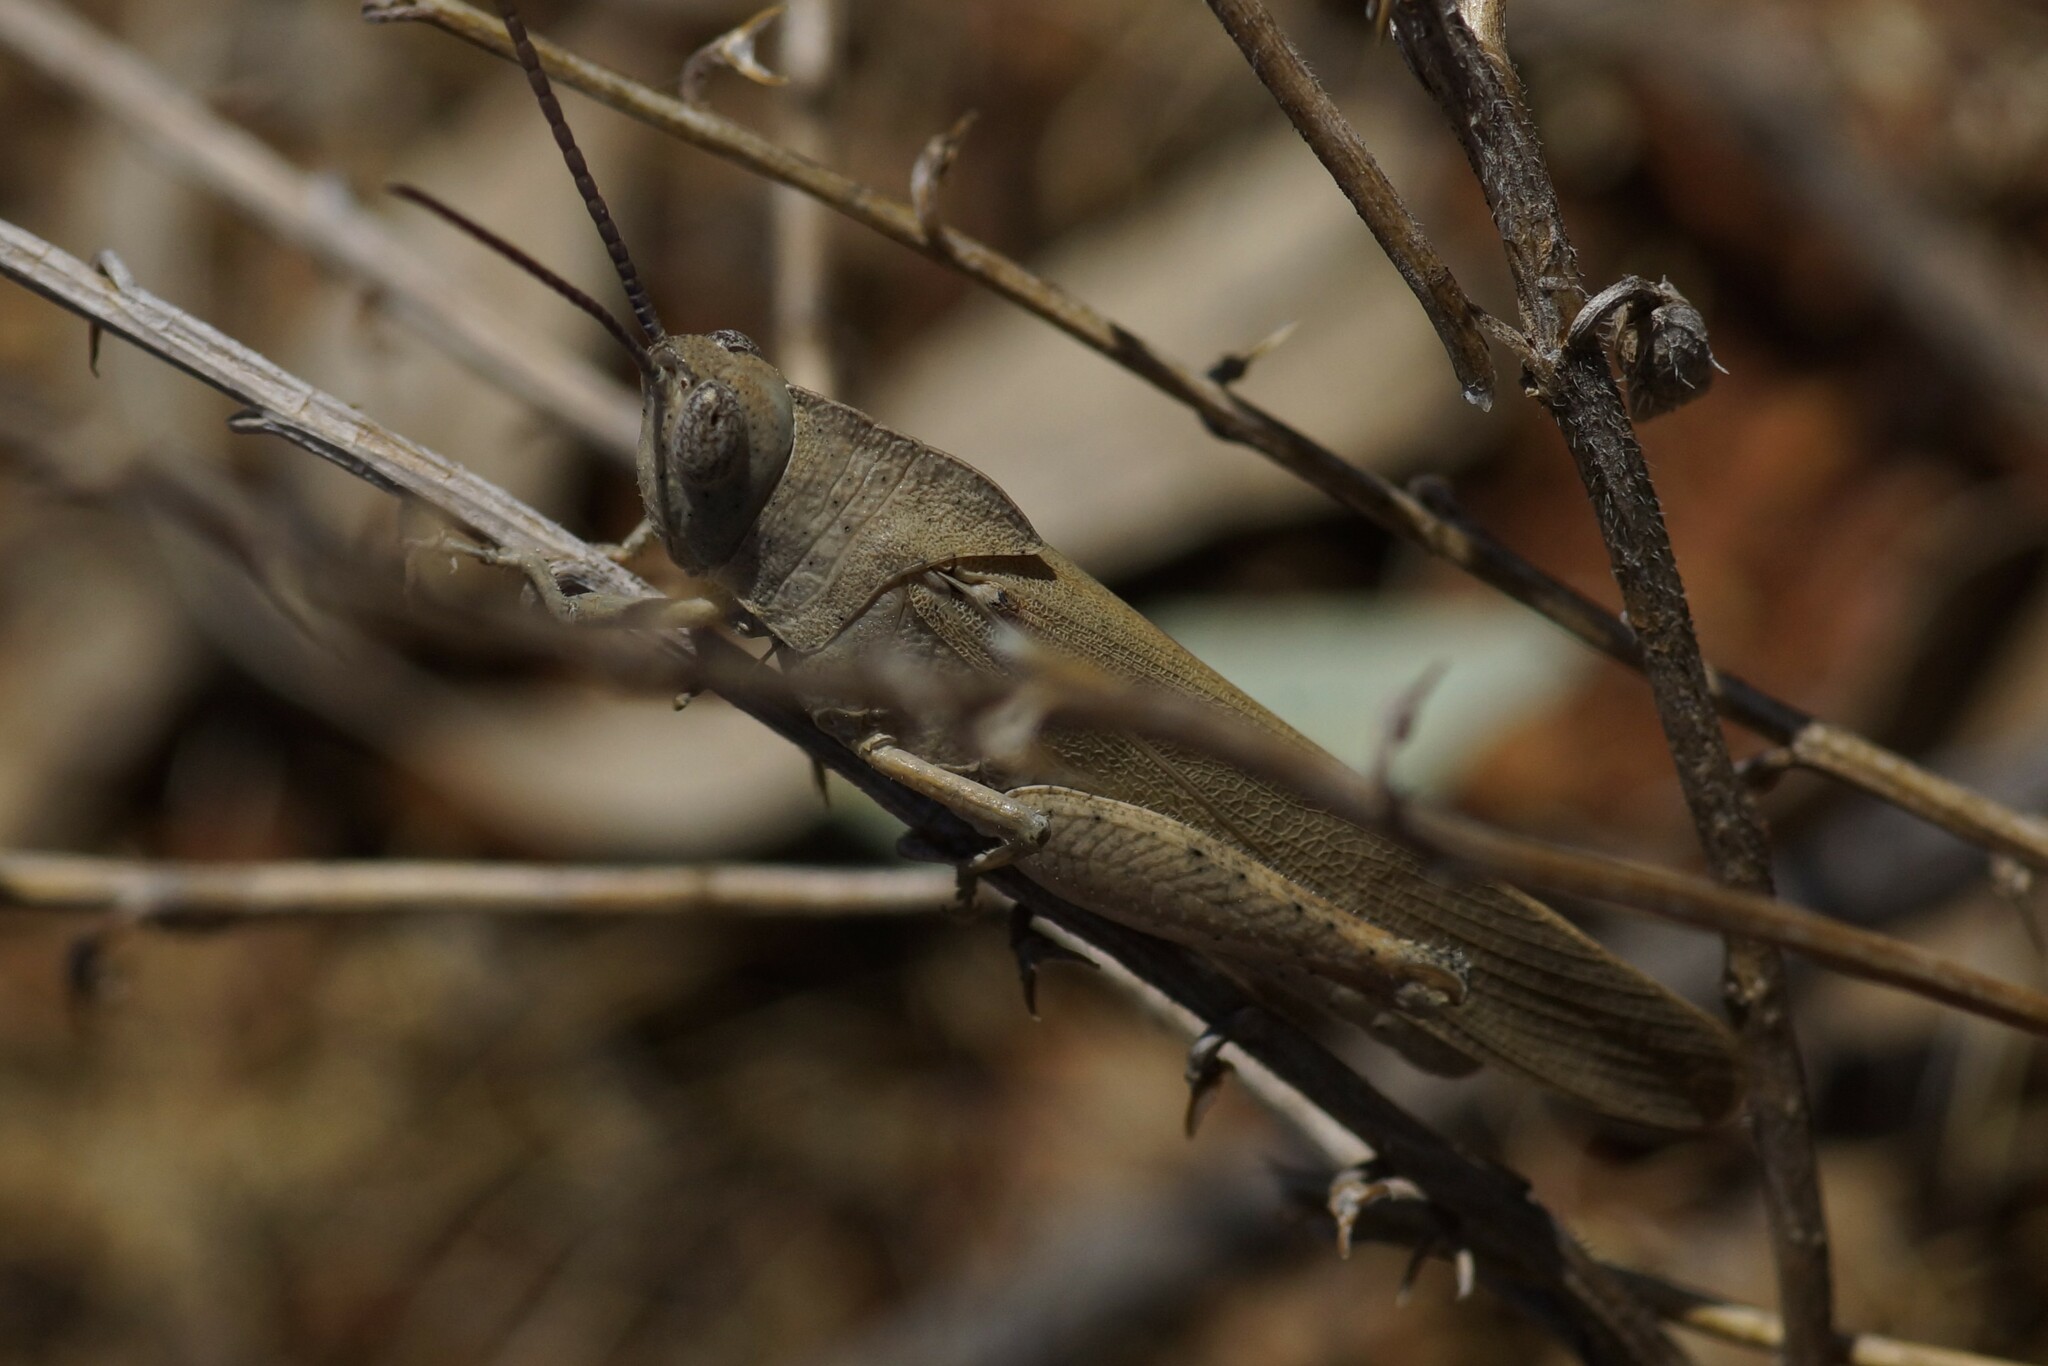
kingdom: Animalia
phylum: Arthropoda
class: Insecta
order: Orthoptera
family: Acrididae
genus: Goniaea
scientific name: Goniaea vocans
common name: Slender gumleaf grasshopper
